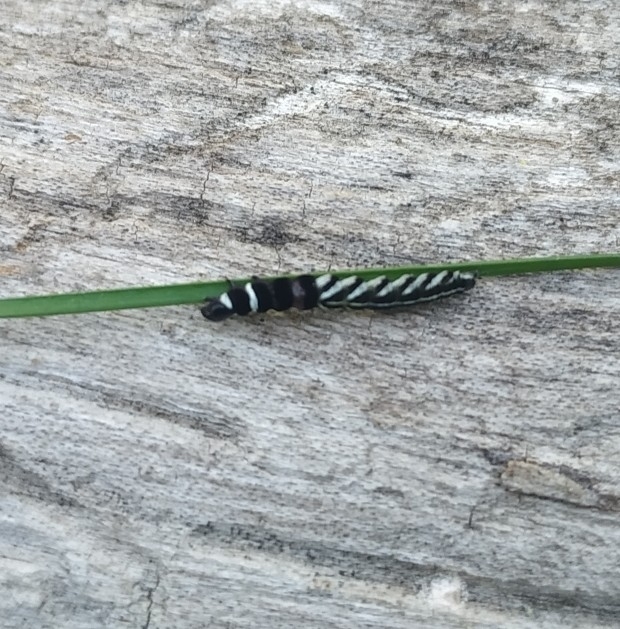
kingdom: Animalia
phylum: Arthropoda
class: Insecta
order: Lepidoptera
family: Gelechiidae
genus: Helcystogramma
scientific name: Helcystogramma lutatella
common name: Clay crest
